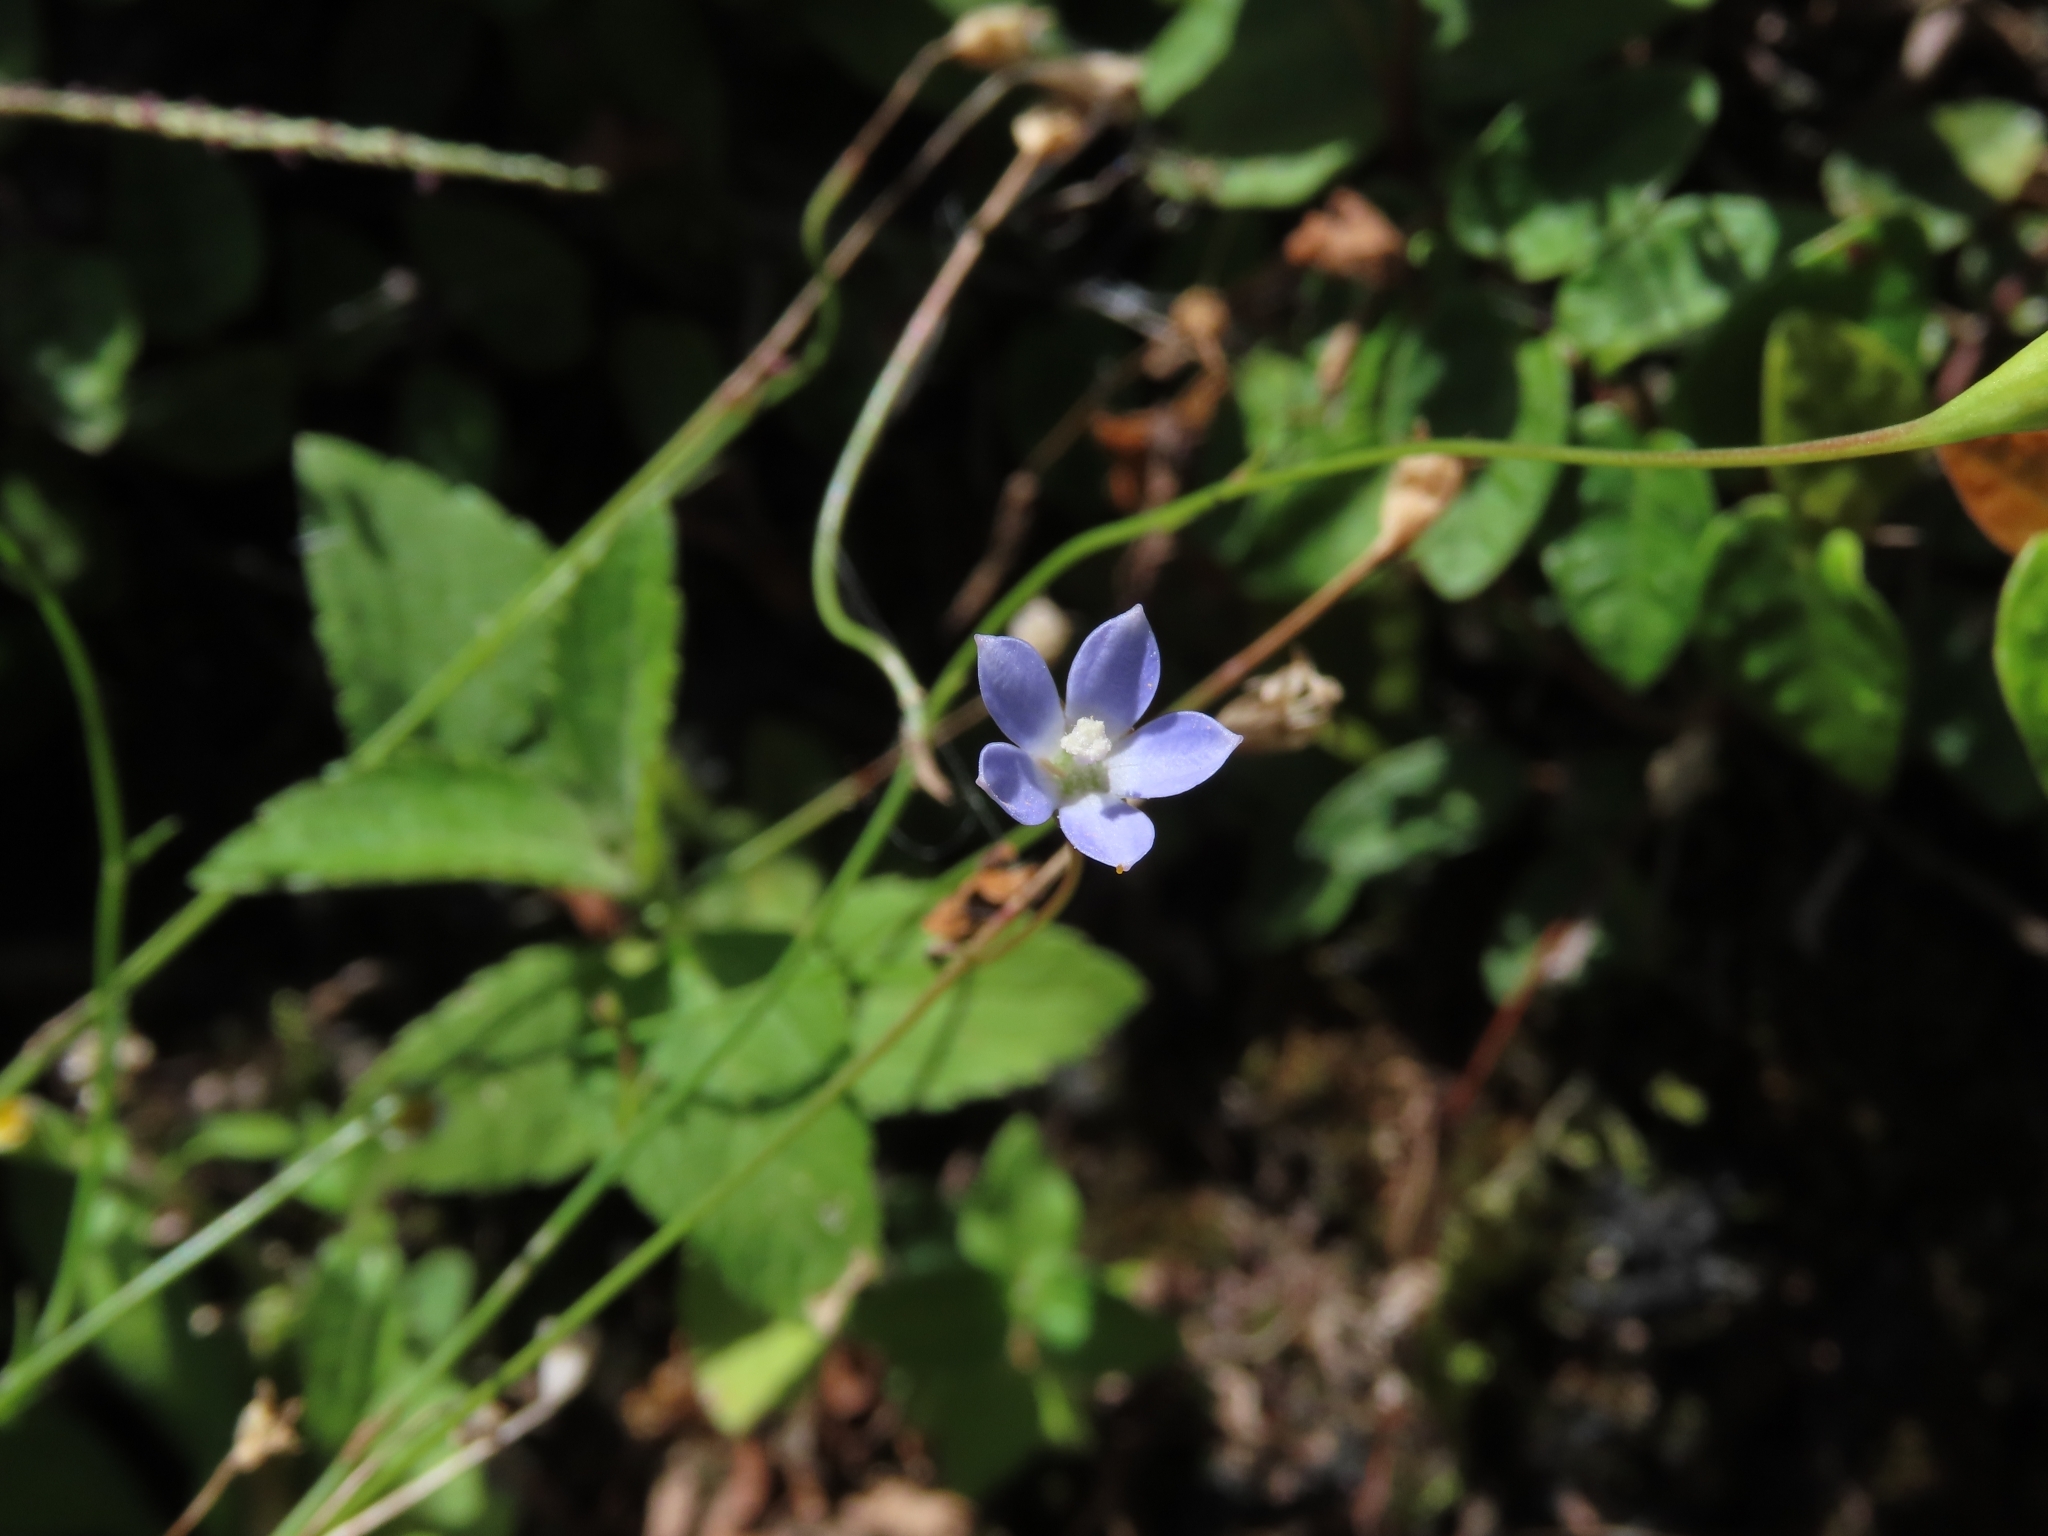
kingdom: Plantae
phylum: Tracheophyta
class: Magnoliopsida
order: Asterales
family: Campanulaceae
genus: Wahlenbergia
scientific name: Wahlenbergia marginata
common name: Southern rockbell
